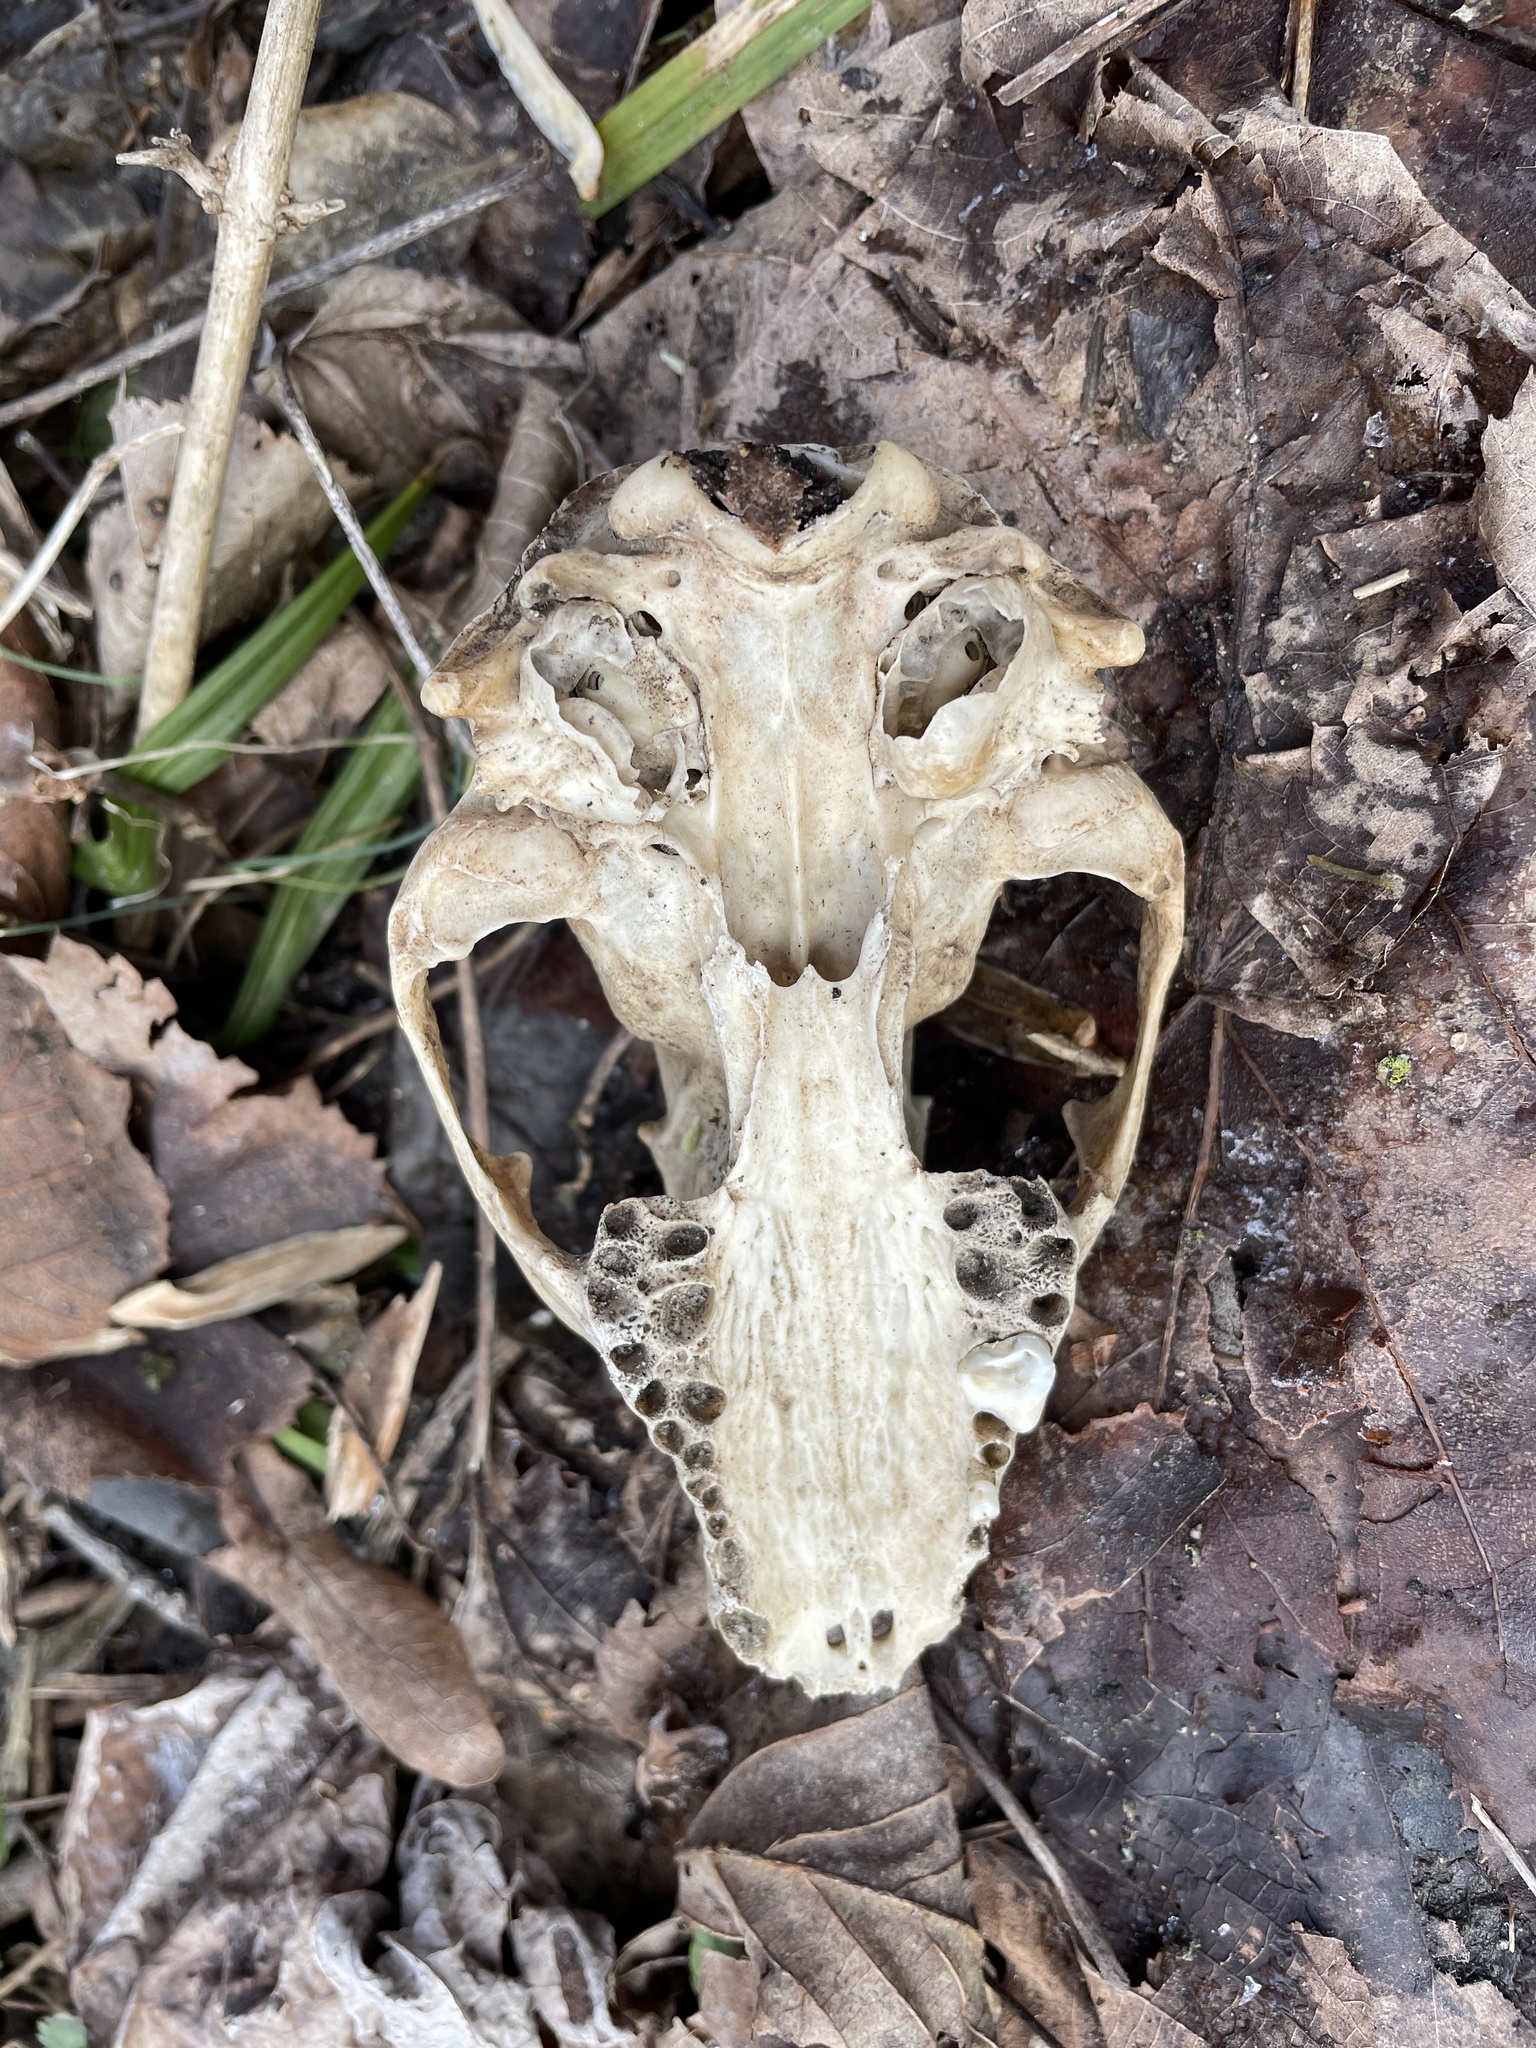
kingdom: Animalia
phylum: Chordata
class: Mammalia
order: Carnivora
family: Procyonidae
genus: Procyon
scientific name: Procyon lotor
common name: Raccoon
